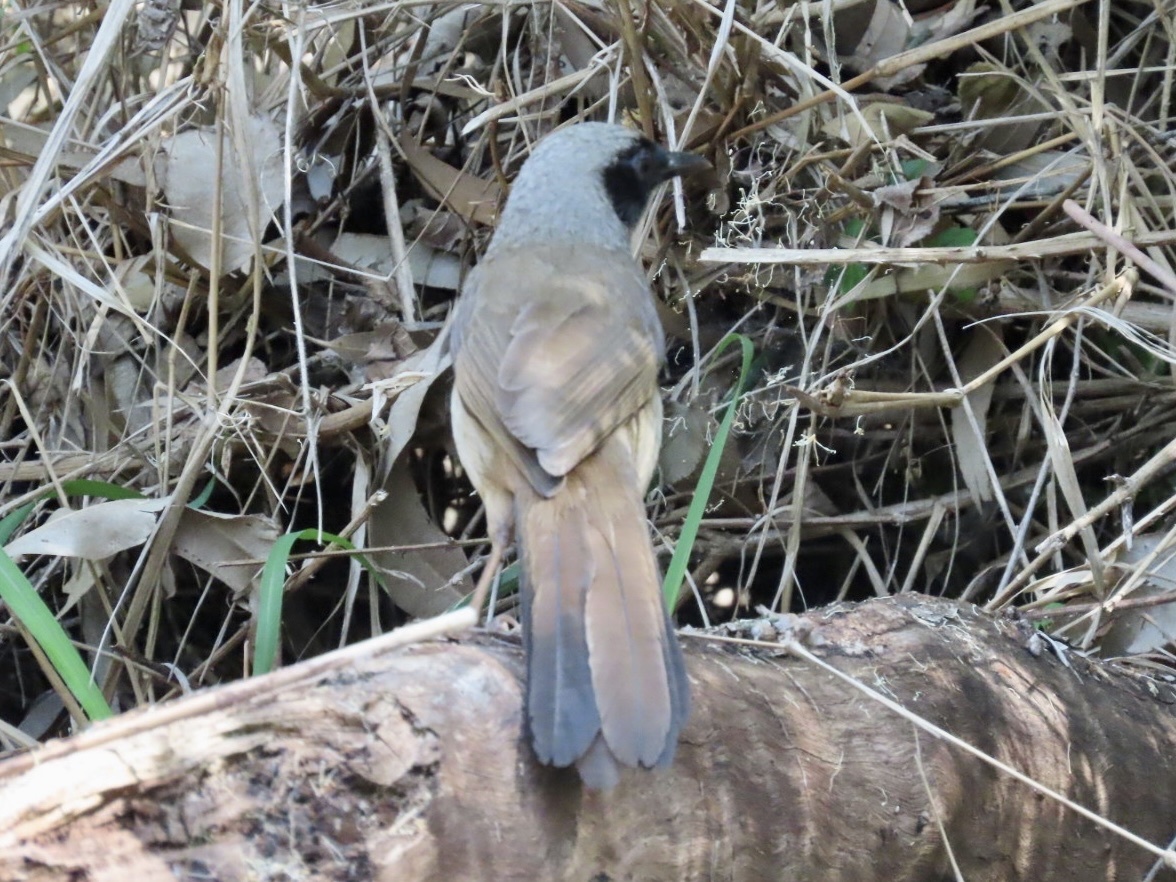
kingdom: Animalia
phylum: Chordata
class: Aves
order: Passeriformes
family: Leiothrichidae
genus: Garrulax
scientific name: Garrulax perspicillatus
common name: Masked laughingthrush
